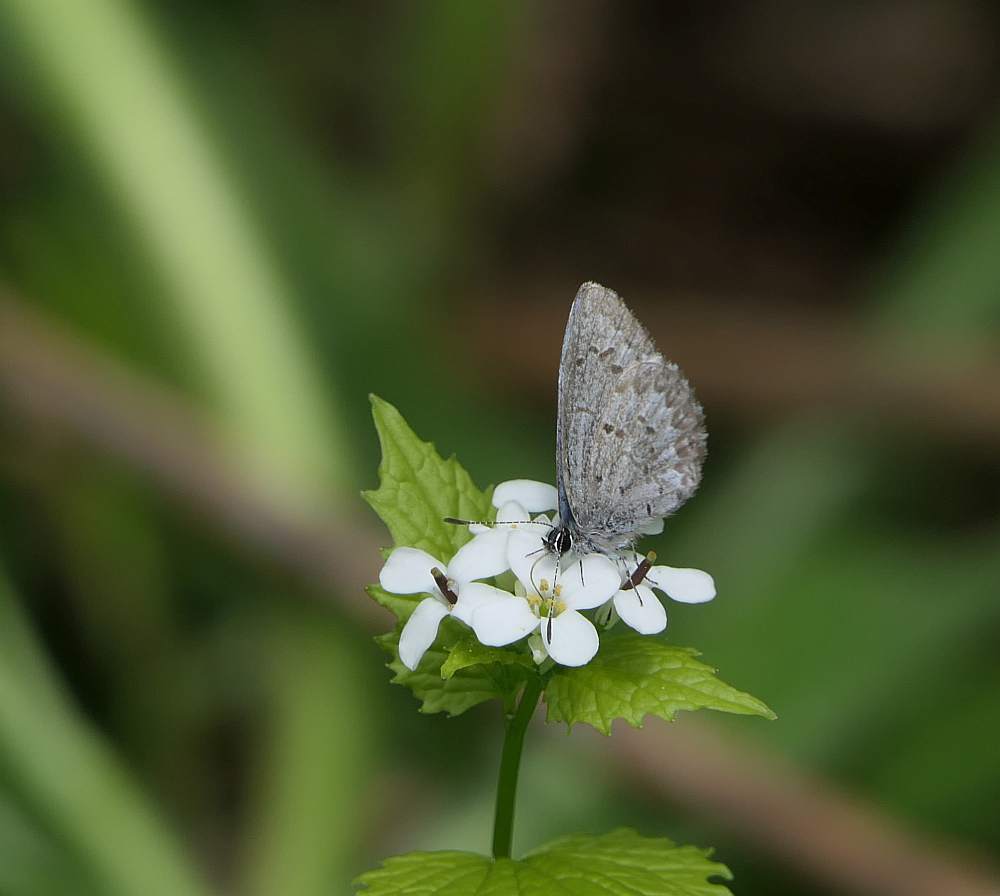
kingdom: Animalia
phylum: Arthropoda
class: Insecta
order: Lepidoptera
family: Lycaenidae
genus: Celastrina
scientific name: Celastrina lucia
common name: Lucia azure
